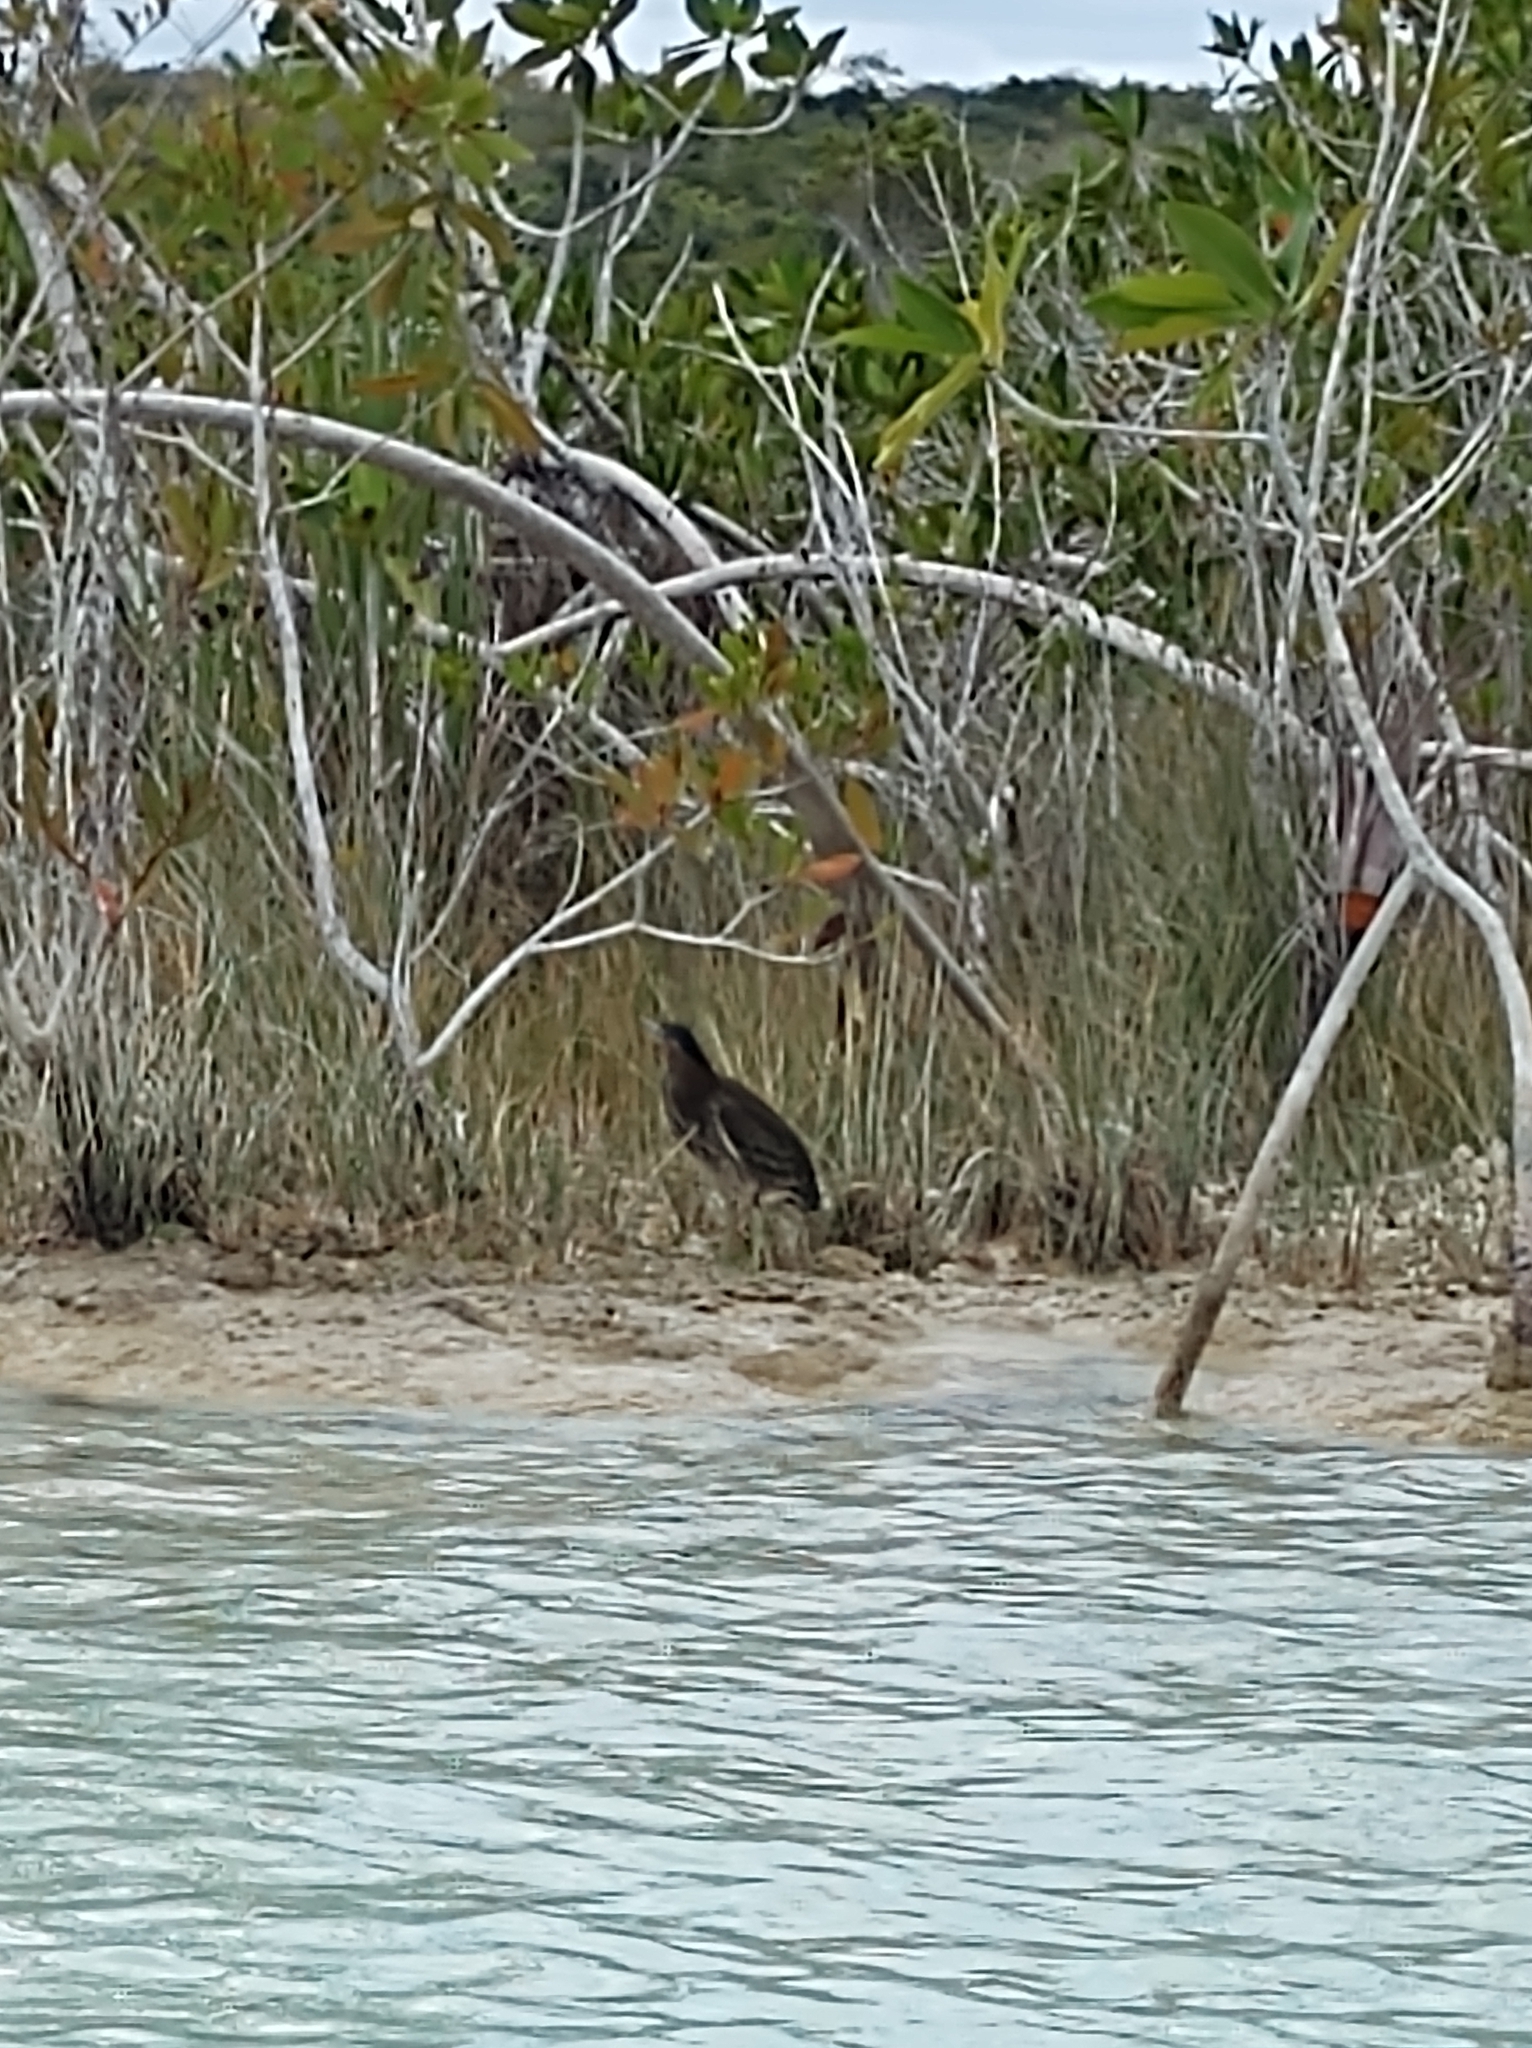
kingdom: Animalia
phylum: Chordata
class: Aves
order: Pelecaniformes
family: Ardeidae
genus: Butorides
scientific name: Butorides virescens
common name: Green heron
